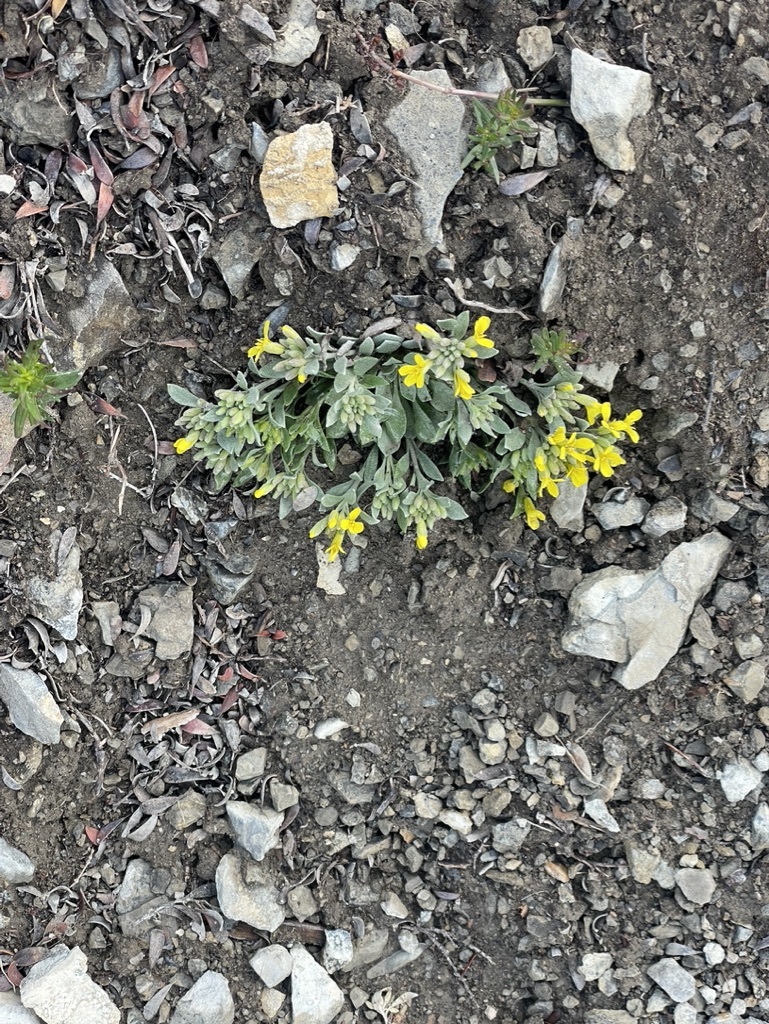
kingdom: Plantae
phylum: Tracheophyta
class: Magnoliopsida
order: Brassicales
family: Brassicaceae
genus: Physaria
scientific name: Physaria didymocarpa
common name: Common twinpod
